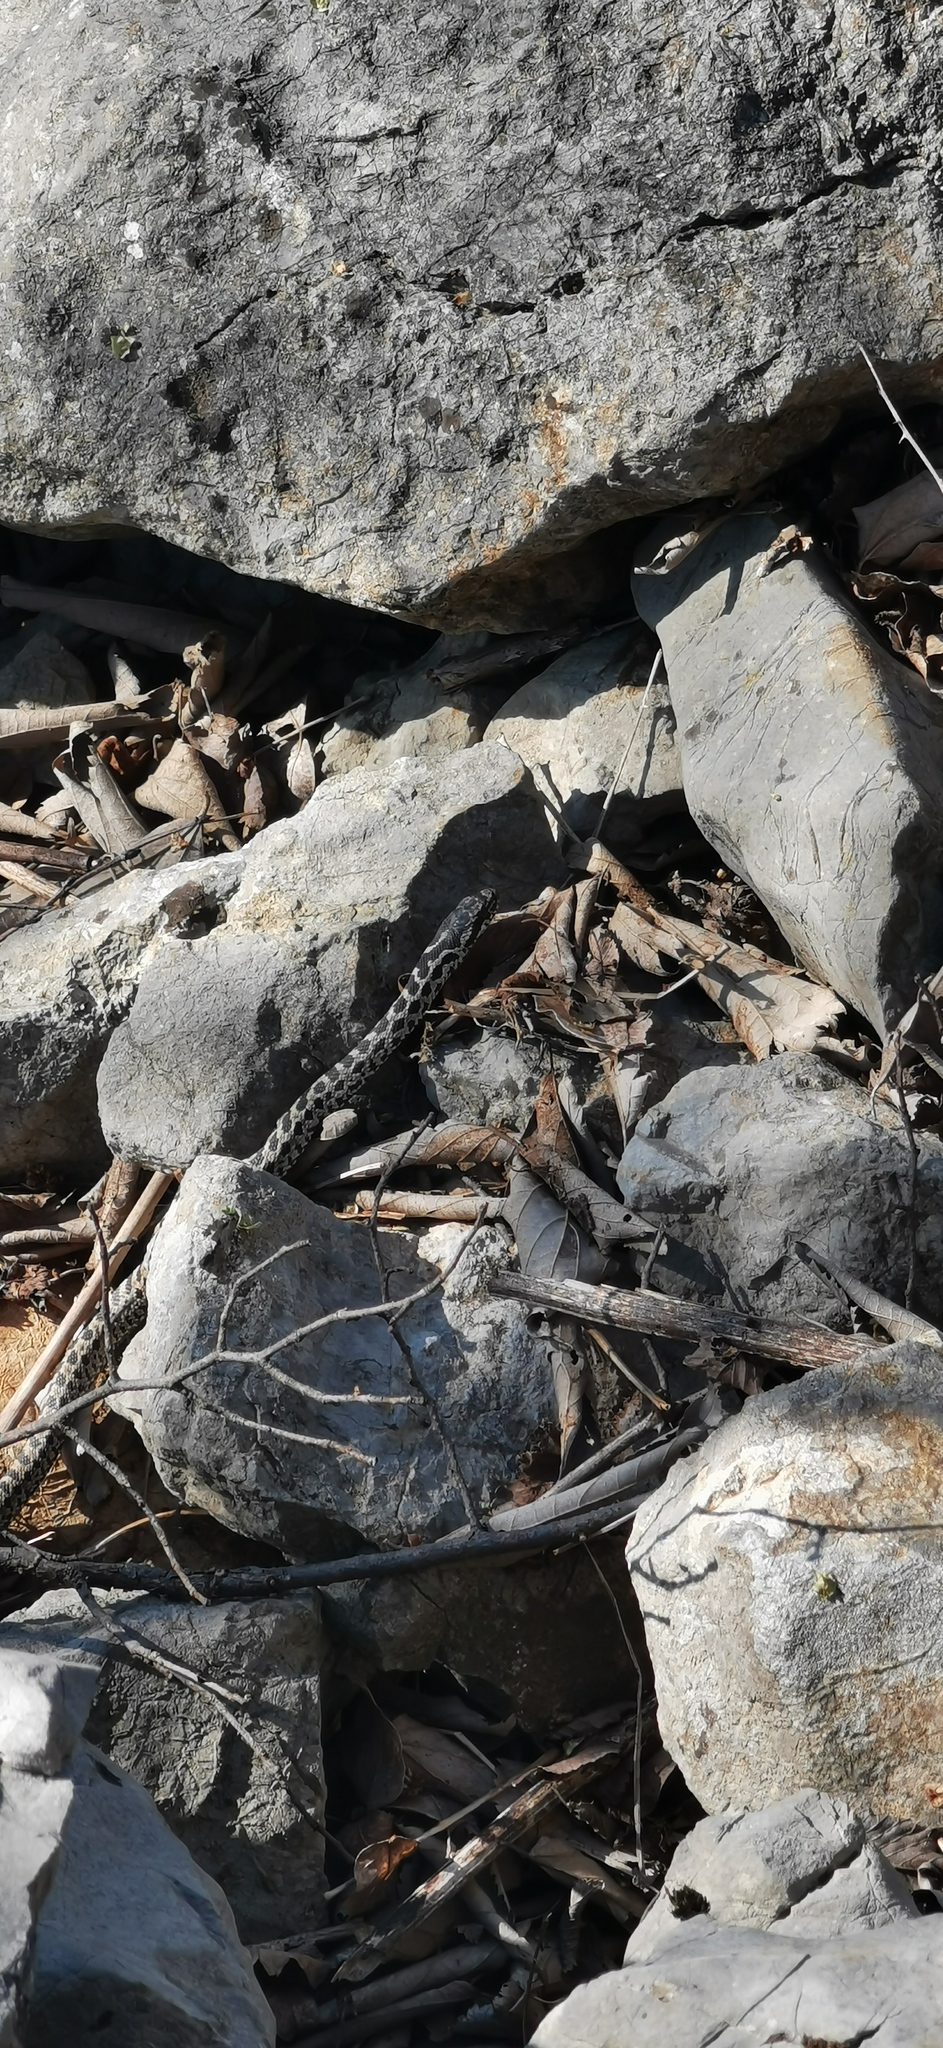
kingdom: Animalia
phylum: Chordata
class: Squamata
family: Colubridae
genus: Elaphe
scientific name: Elaphe quatuorlineata
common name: Four-lined snake
